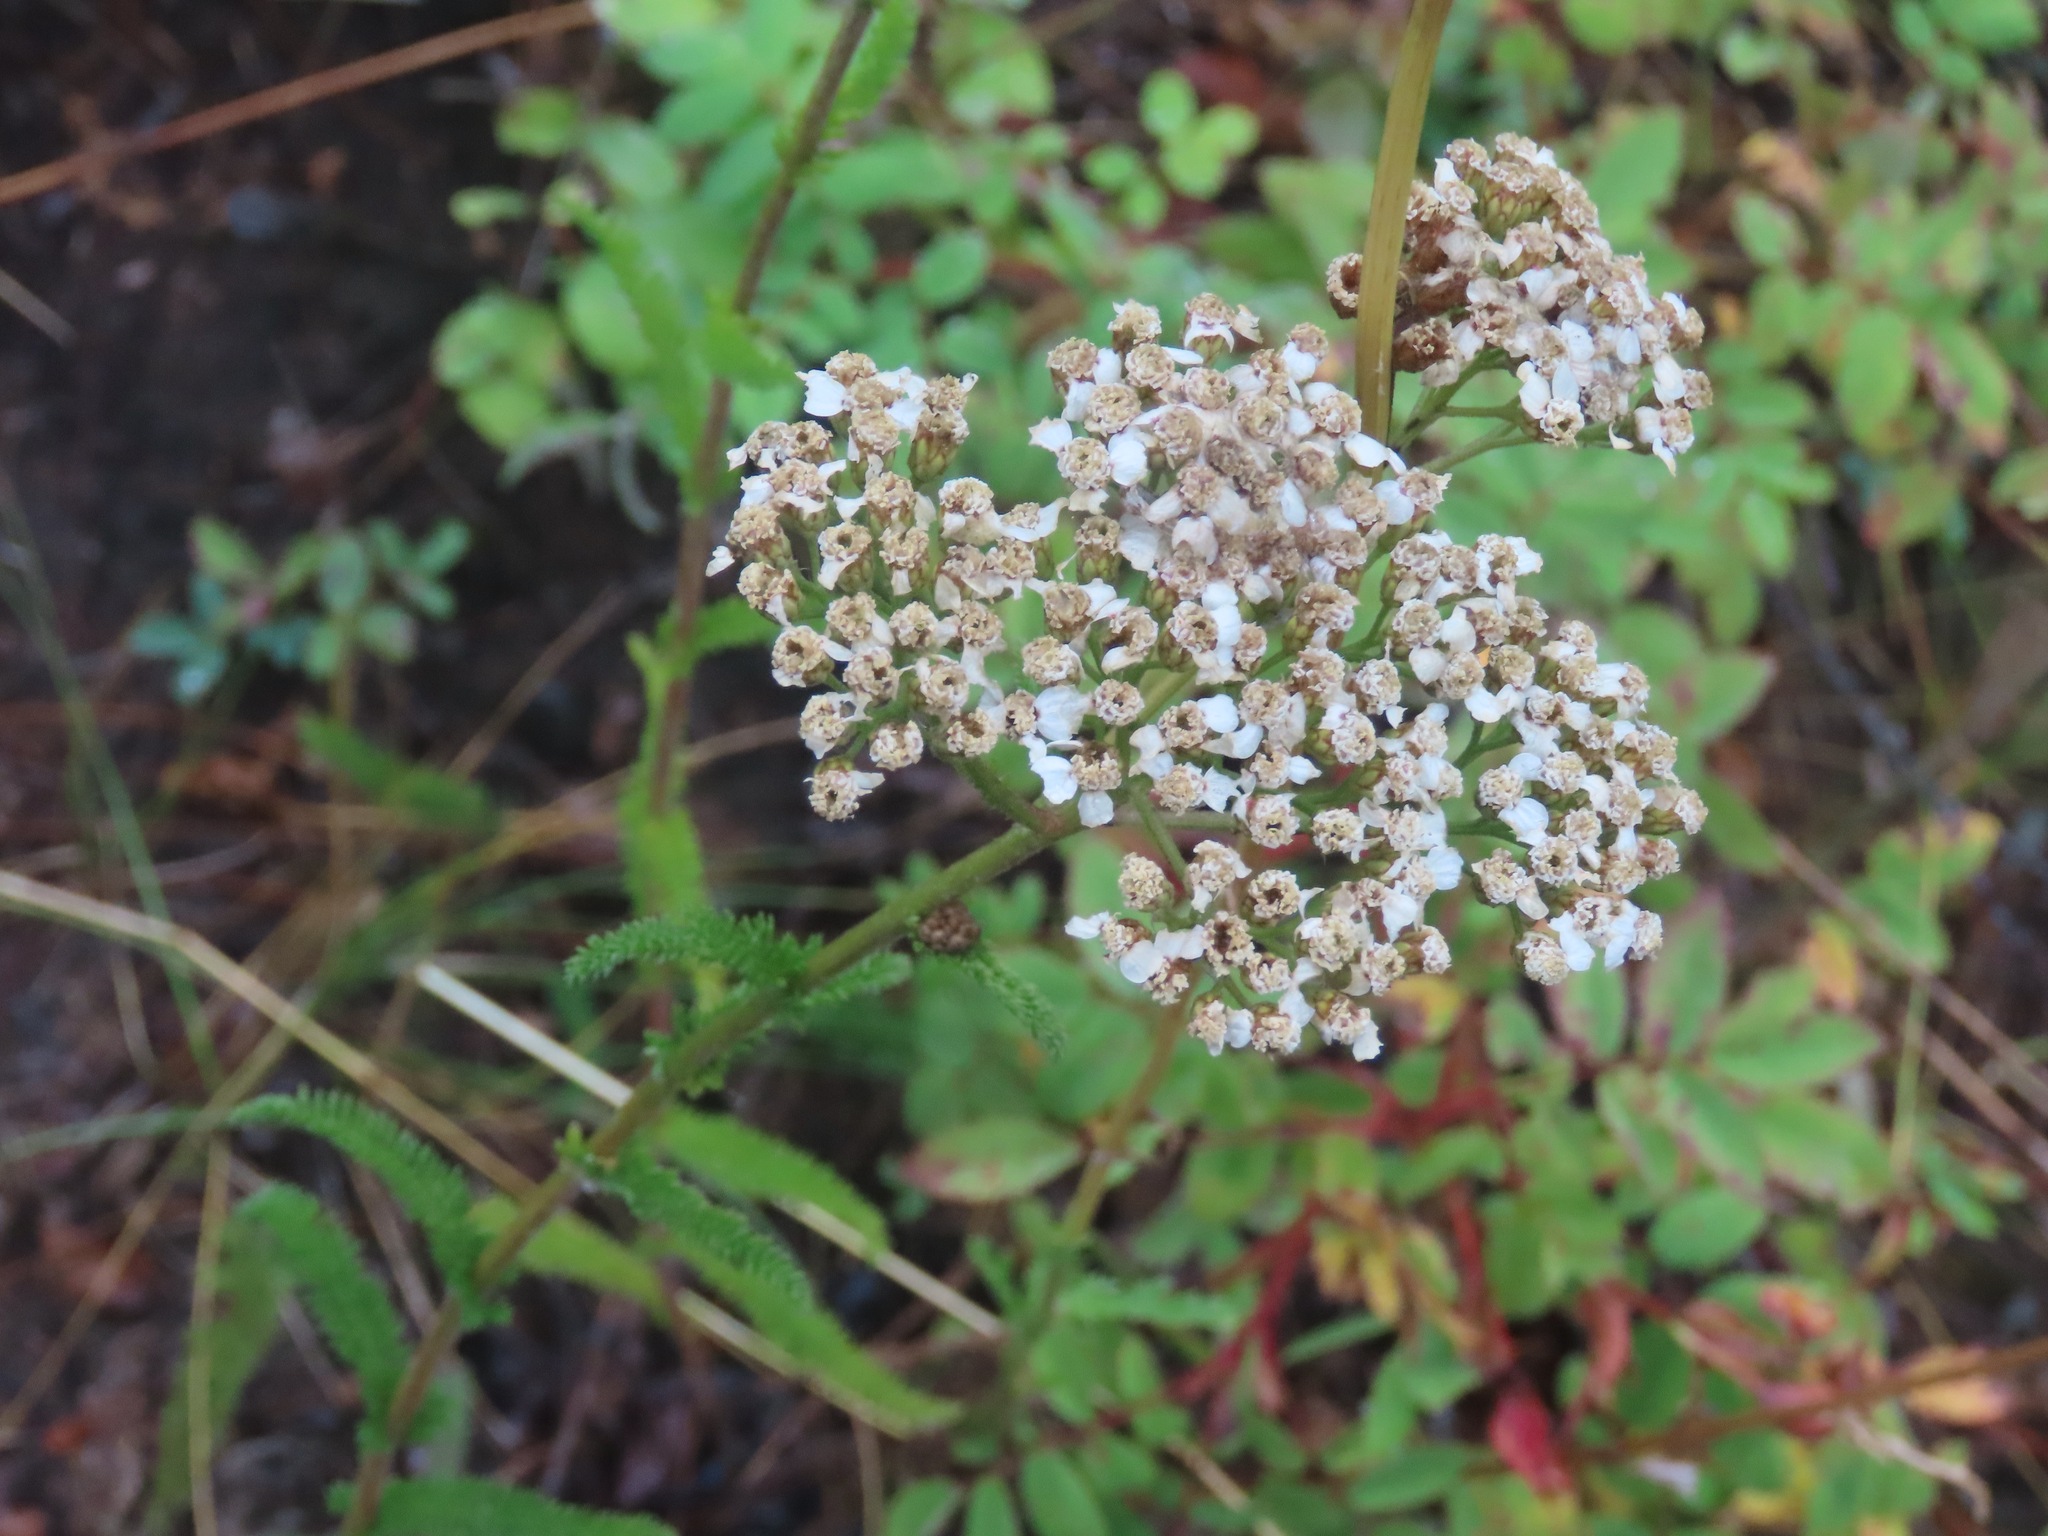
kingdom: Plantae
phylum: Tracheophyta
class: Magnoliopsida
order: Asterales
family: Asteraceae
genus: Achillea
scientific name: Achillea millefolium
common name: Yarrow
